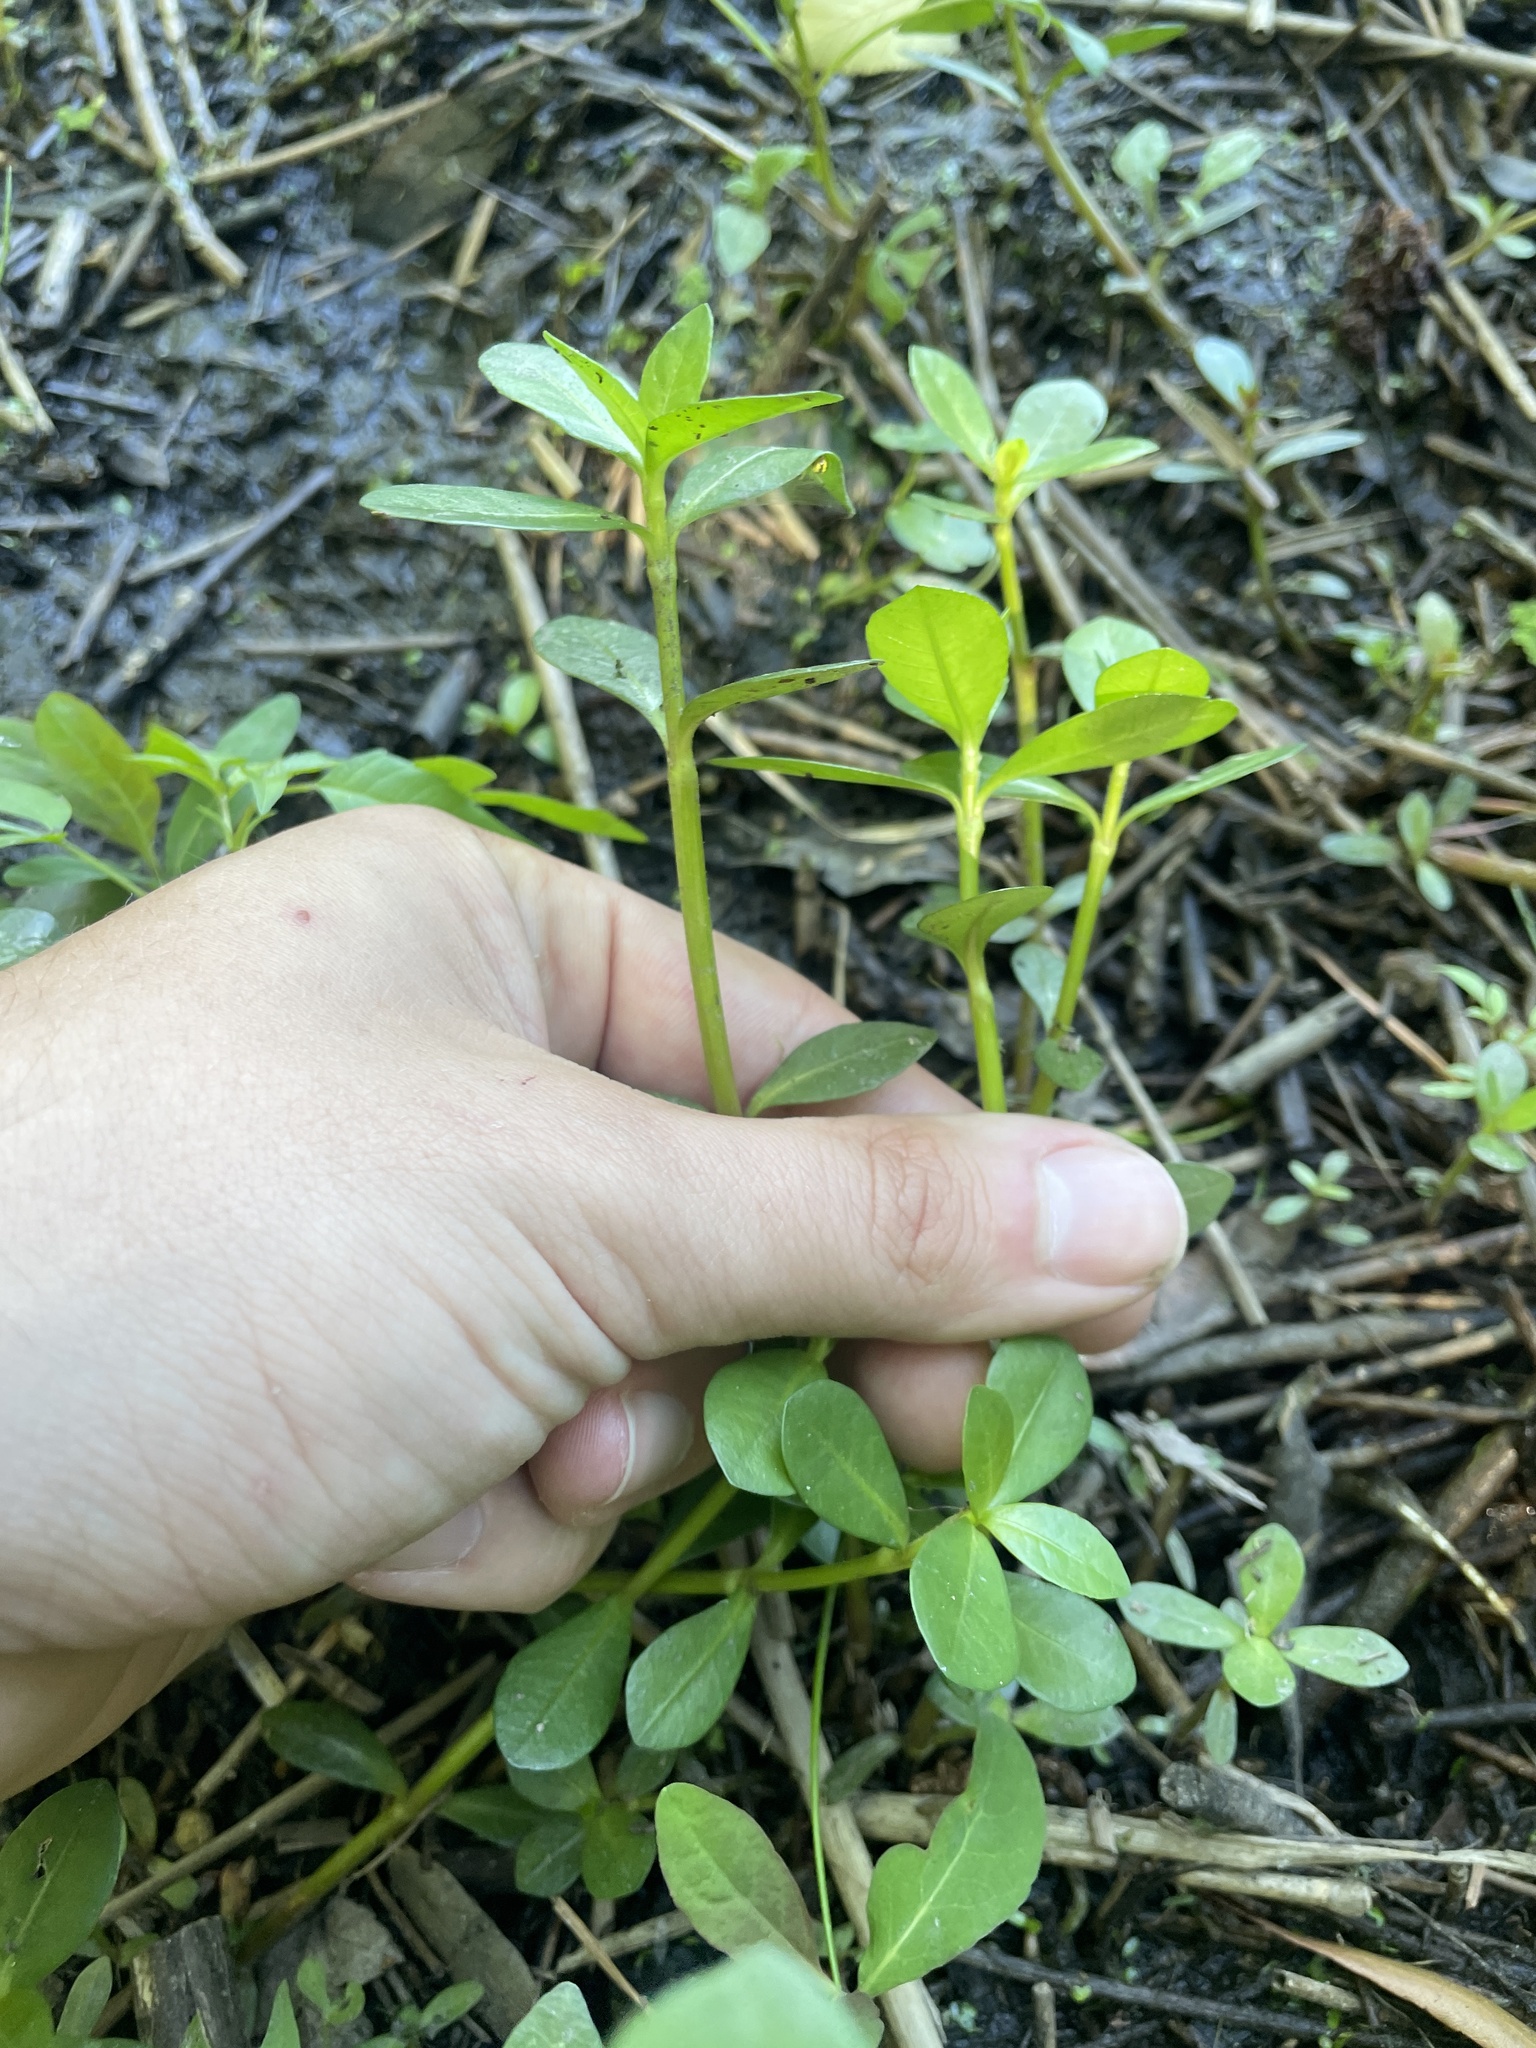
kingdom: Plantae
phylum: Tracheophyta
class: Magnoliopsida
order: Caryophyllales
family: Amaranthaceae
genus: Alternanthera
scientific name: Alternanthera philoxeroides
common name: Alligatorweed
